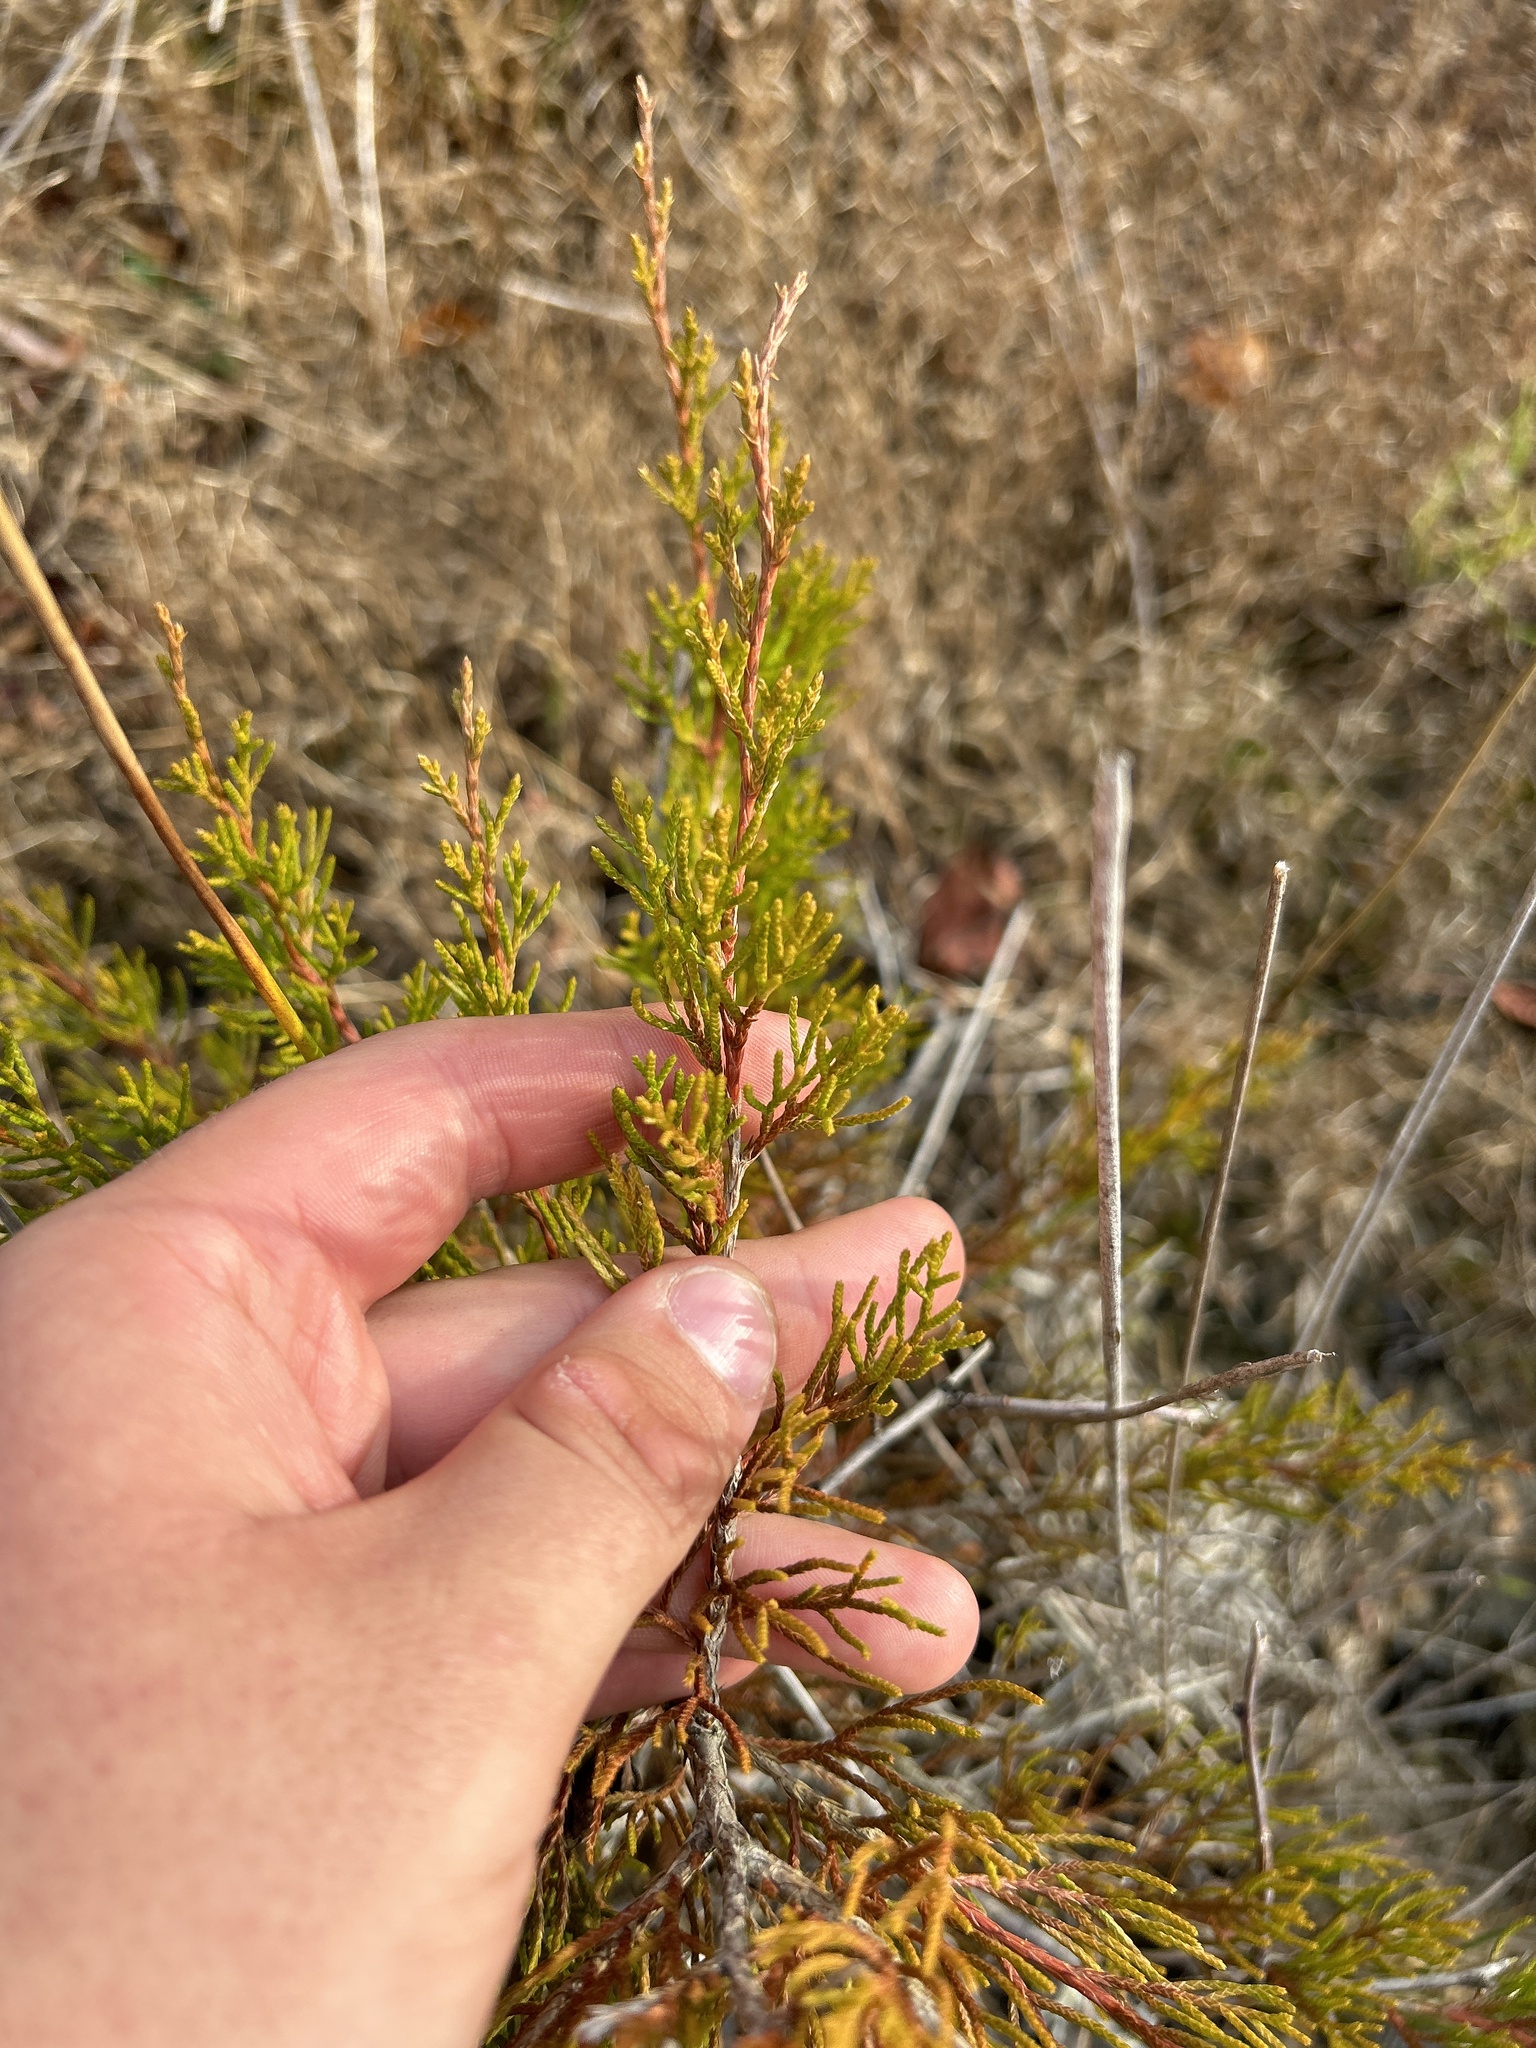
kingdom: Plantae
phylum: Tracheophyta
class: Pinopsida
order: Pinales
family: Cupressaceae
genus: Juniperus
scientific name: Juniperus virginiana
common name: Red juniper
